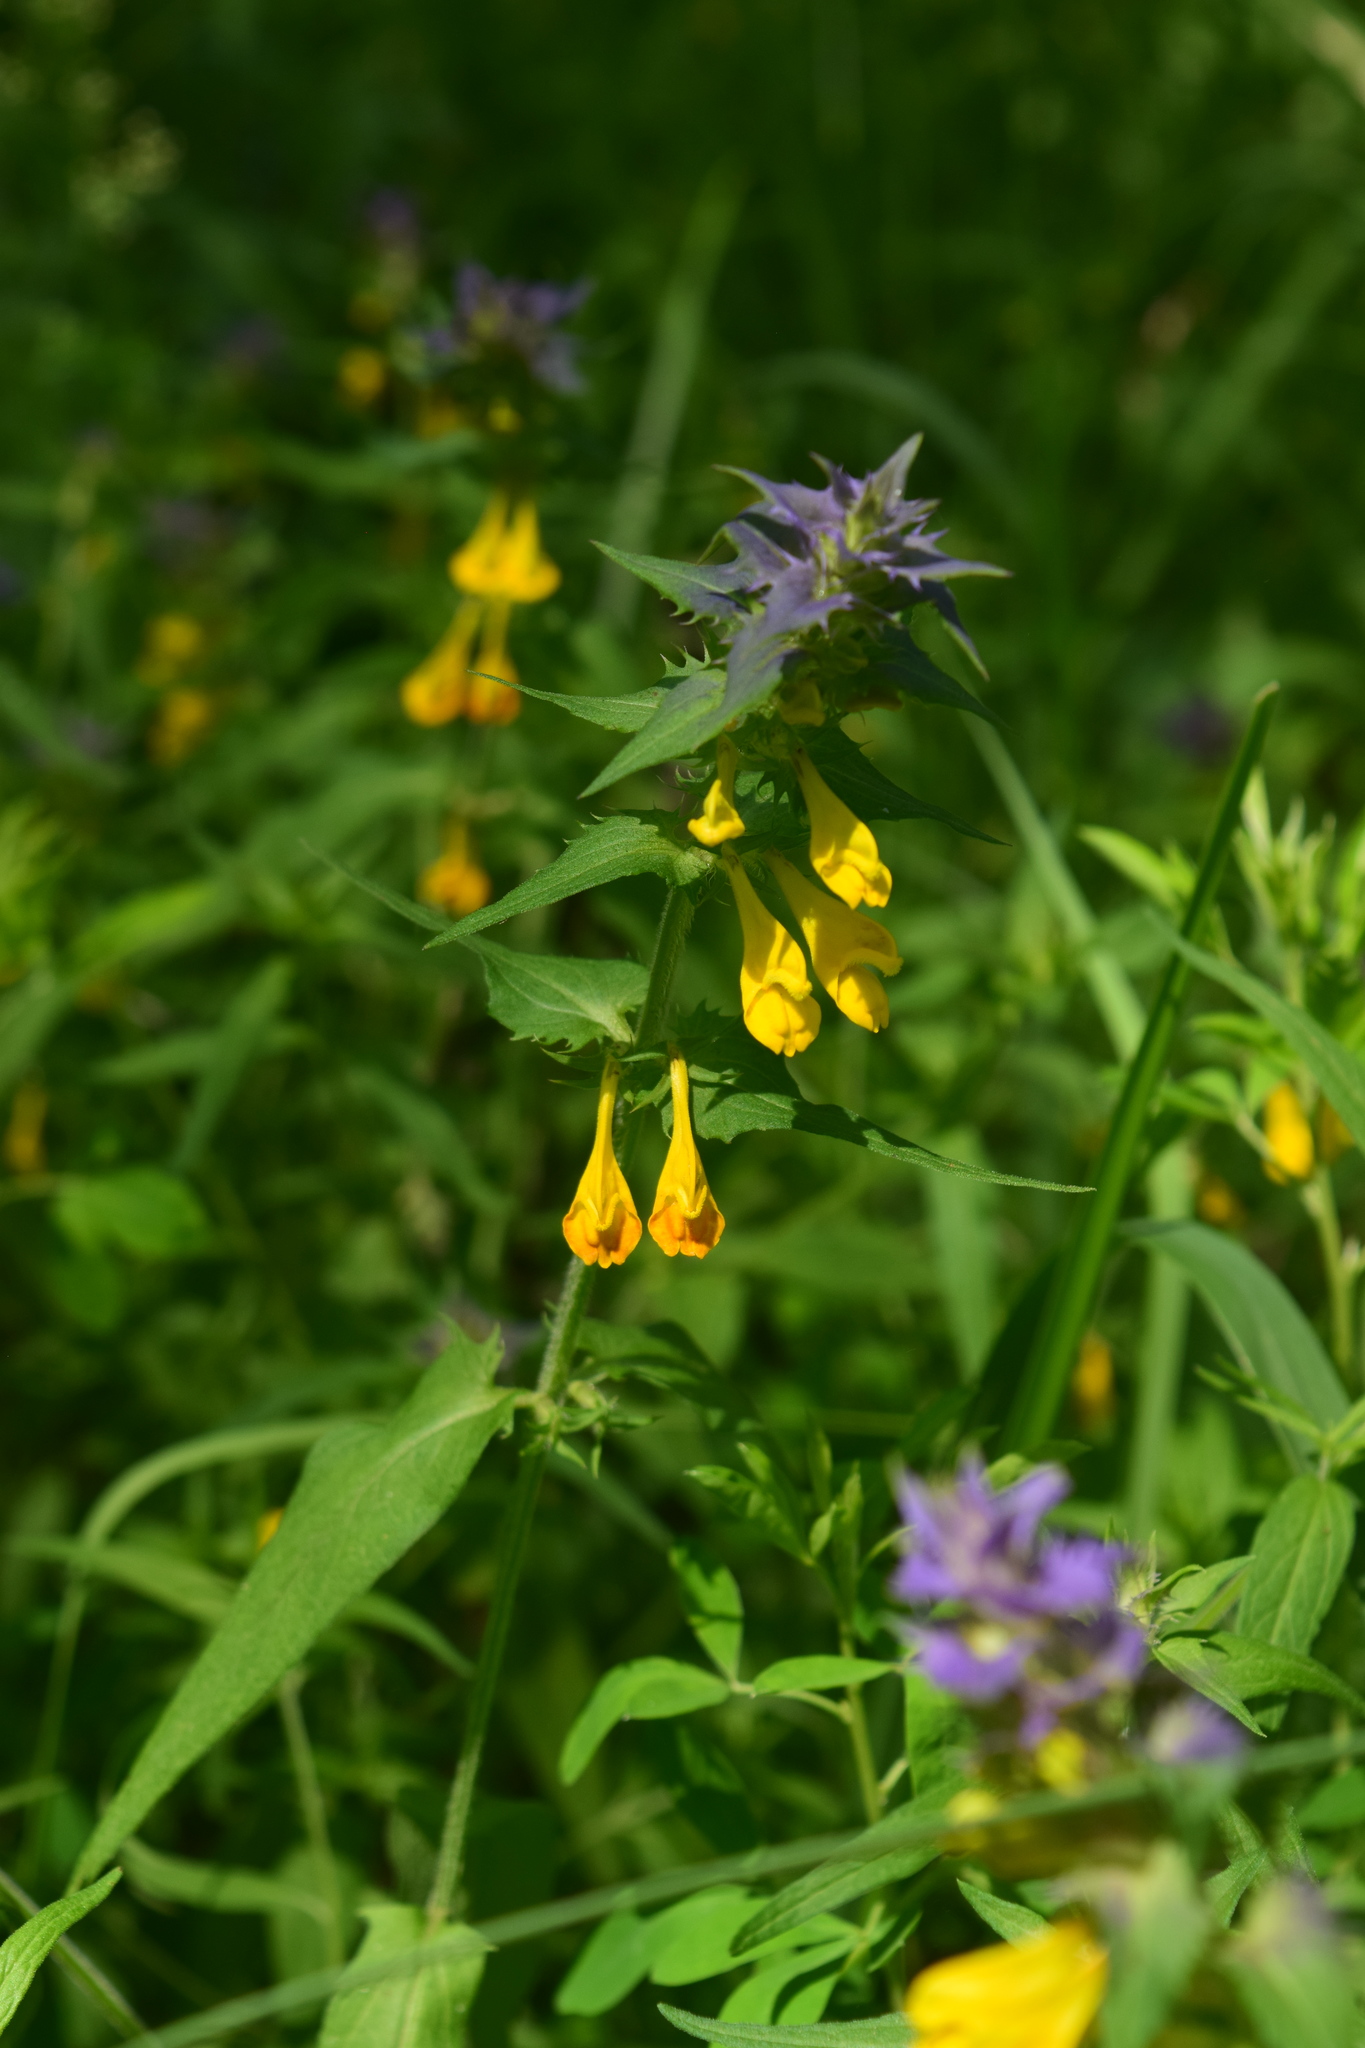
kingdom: Plantae
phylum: Tracheophyta
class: Magnoliopsida
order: Lamiales
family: Orobanchaceae
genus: Melampyrum
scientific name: Melampyrum nemorosum
